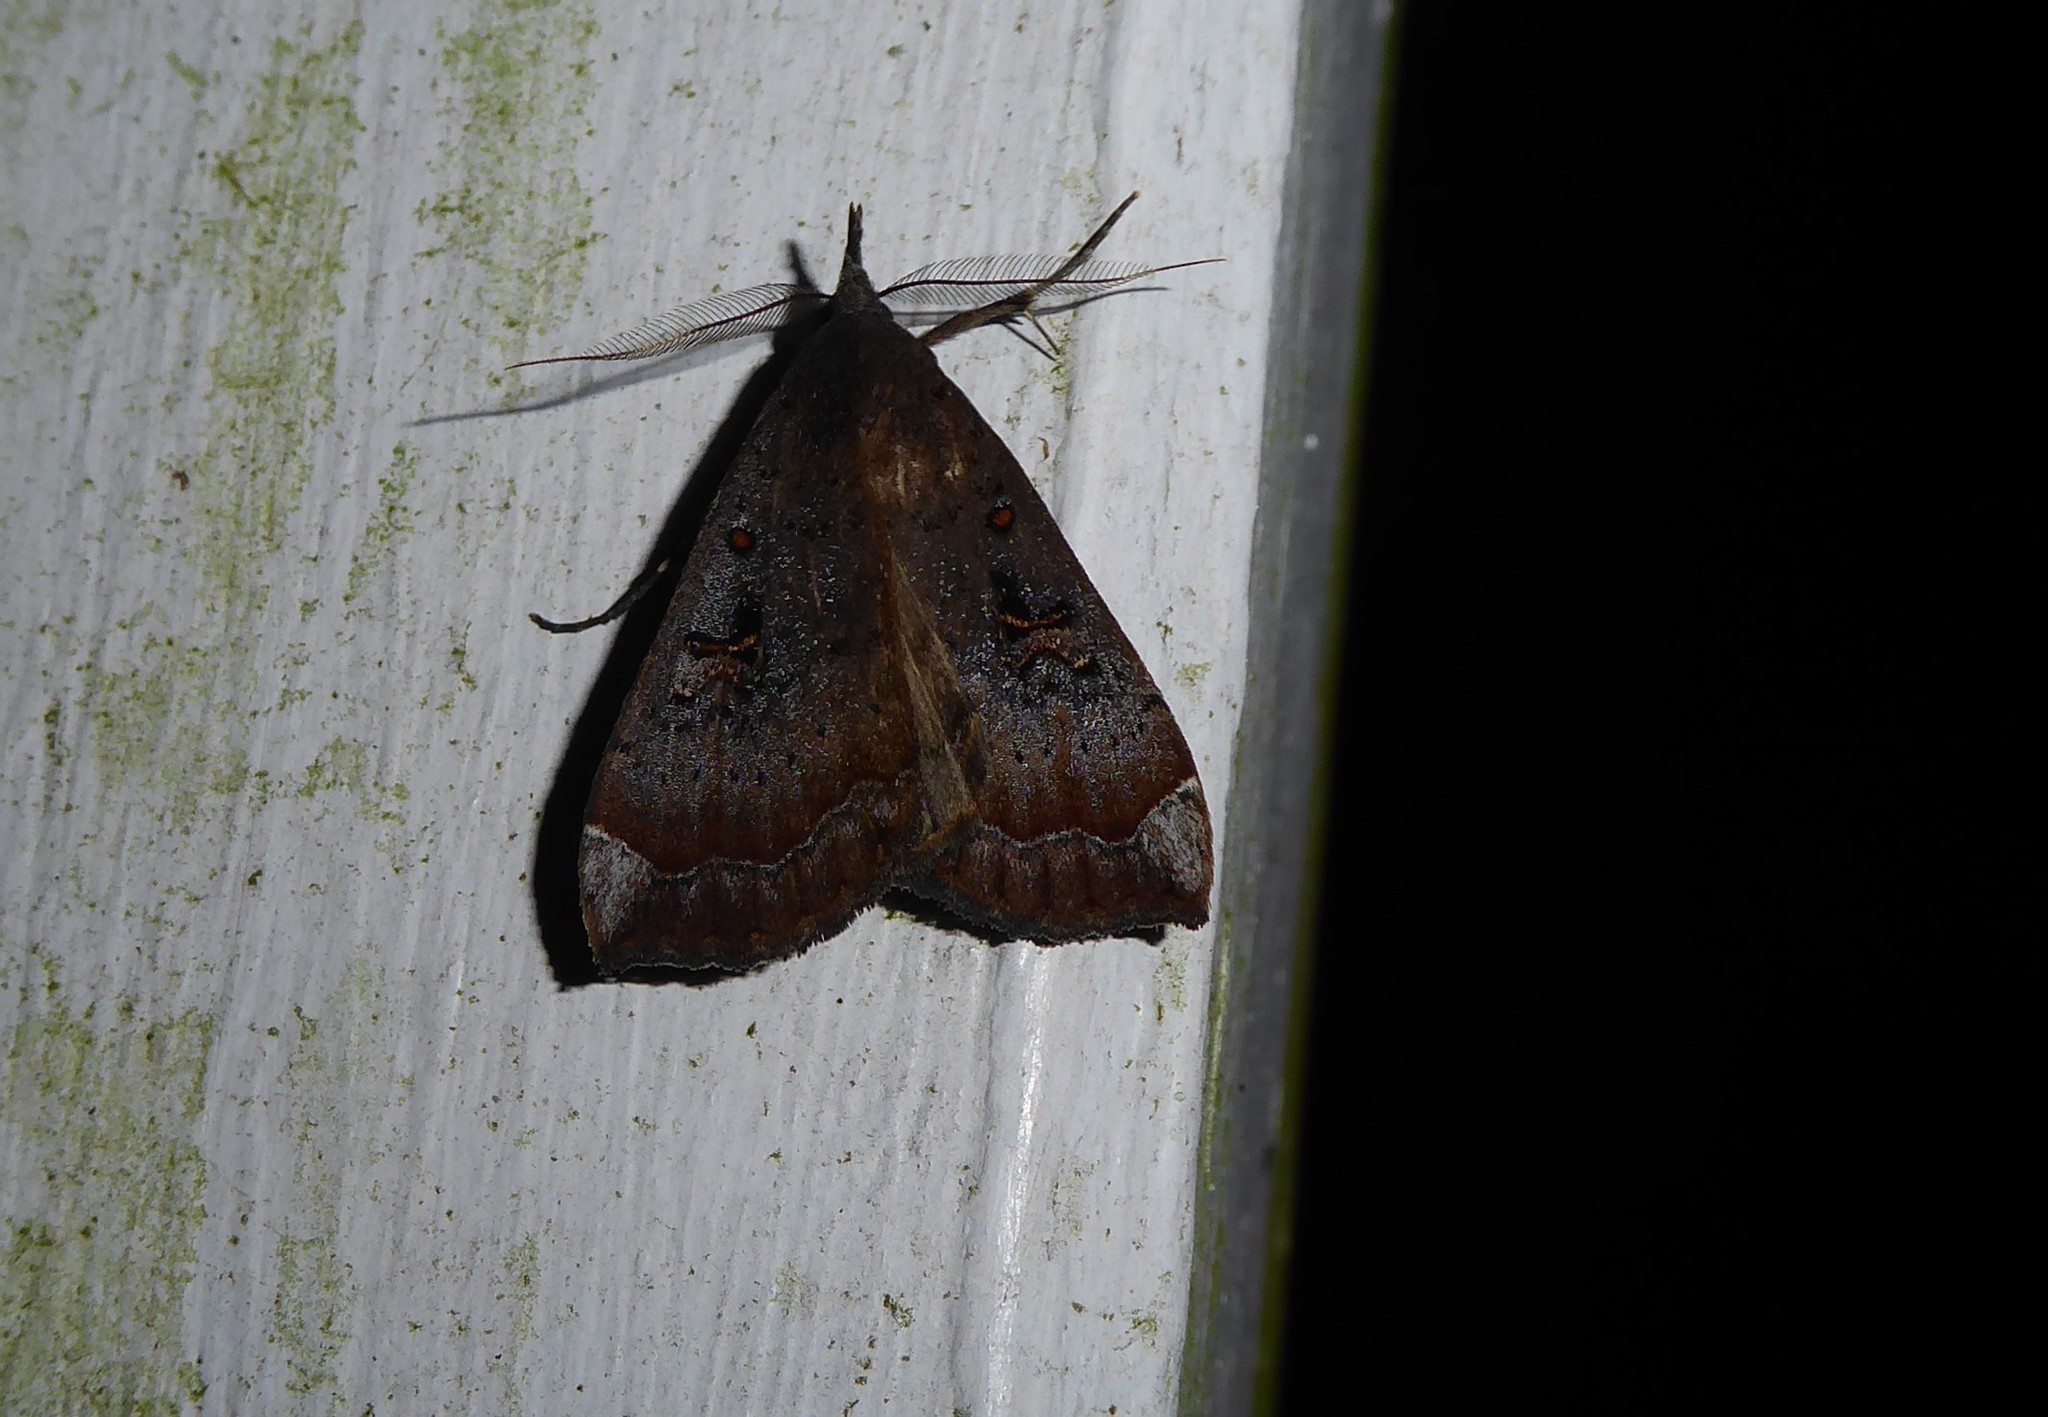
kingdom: Animalia
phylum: Arthropoda
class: Insecta
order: Lepidoptera
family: Erebidae
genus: Rhapsa
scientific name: Rhapsa scotosialis
